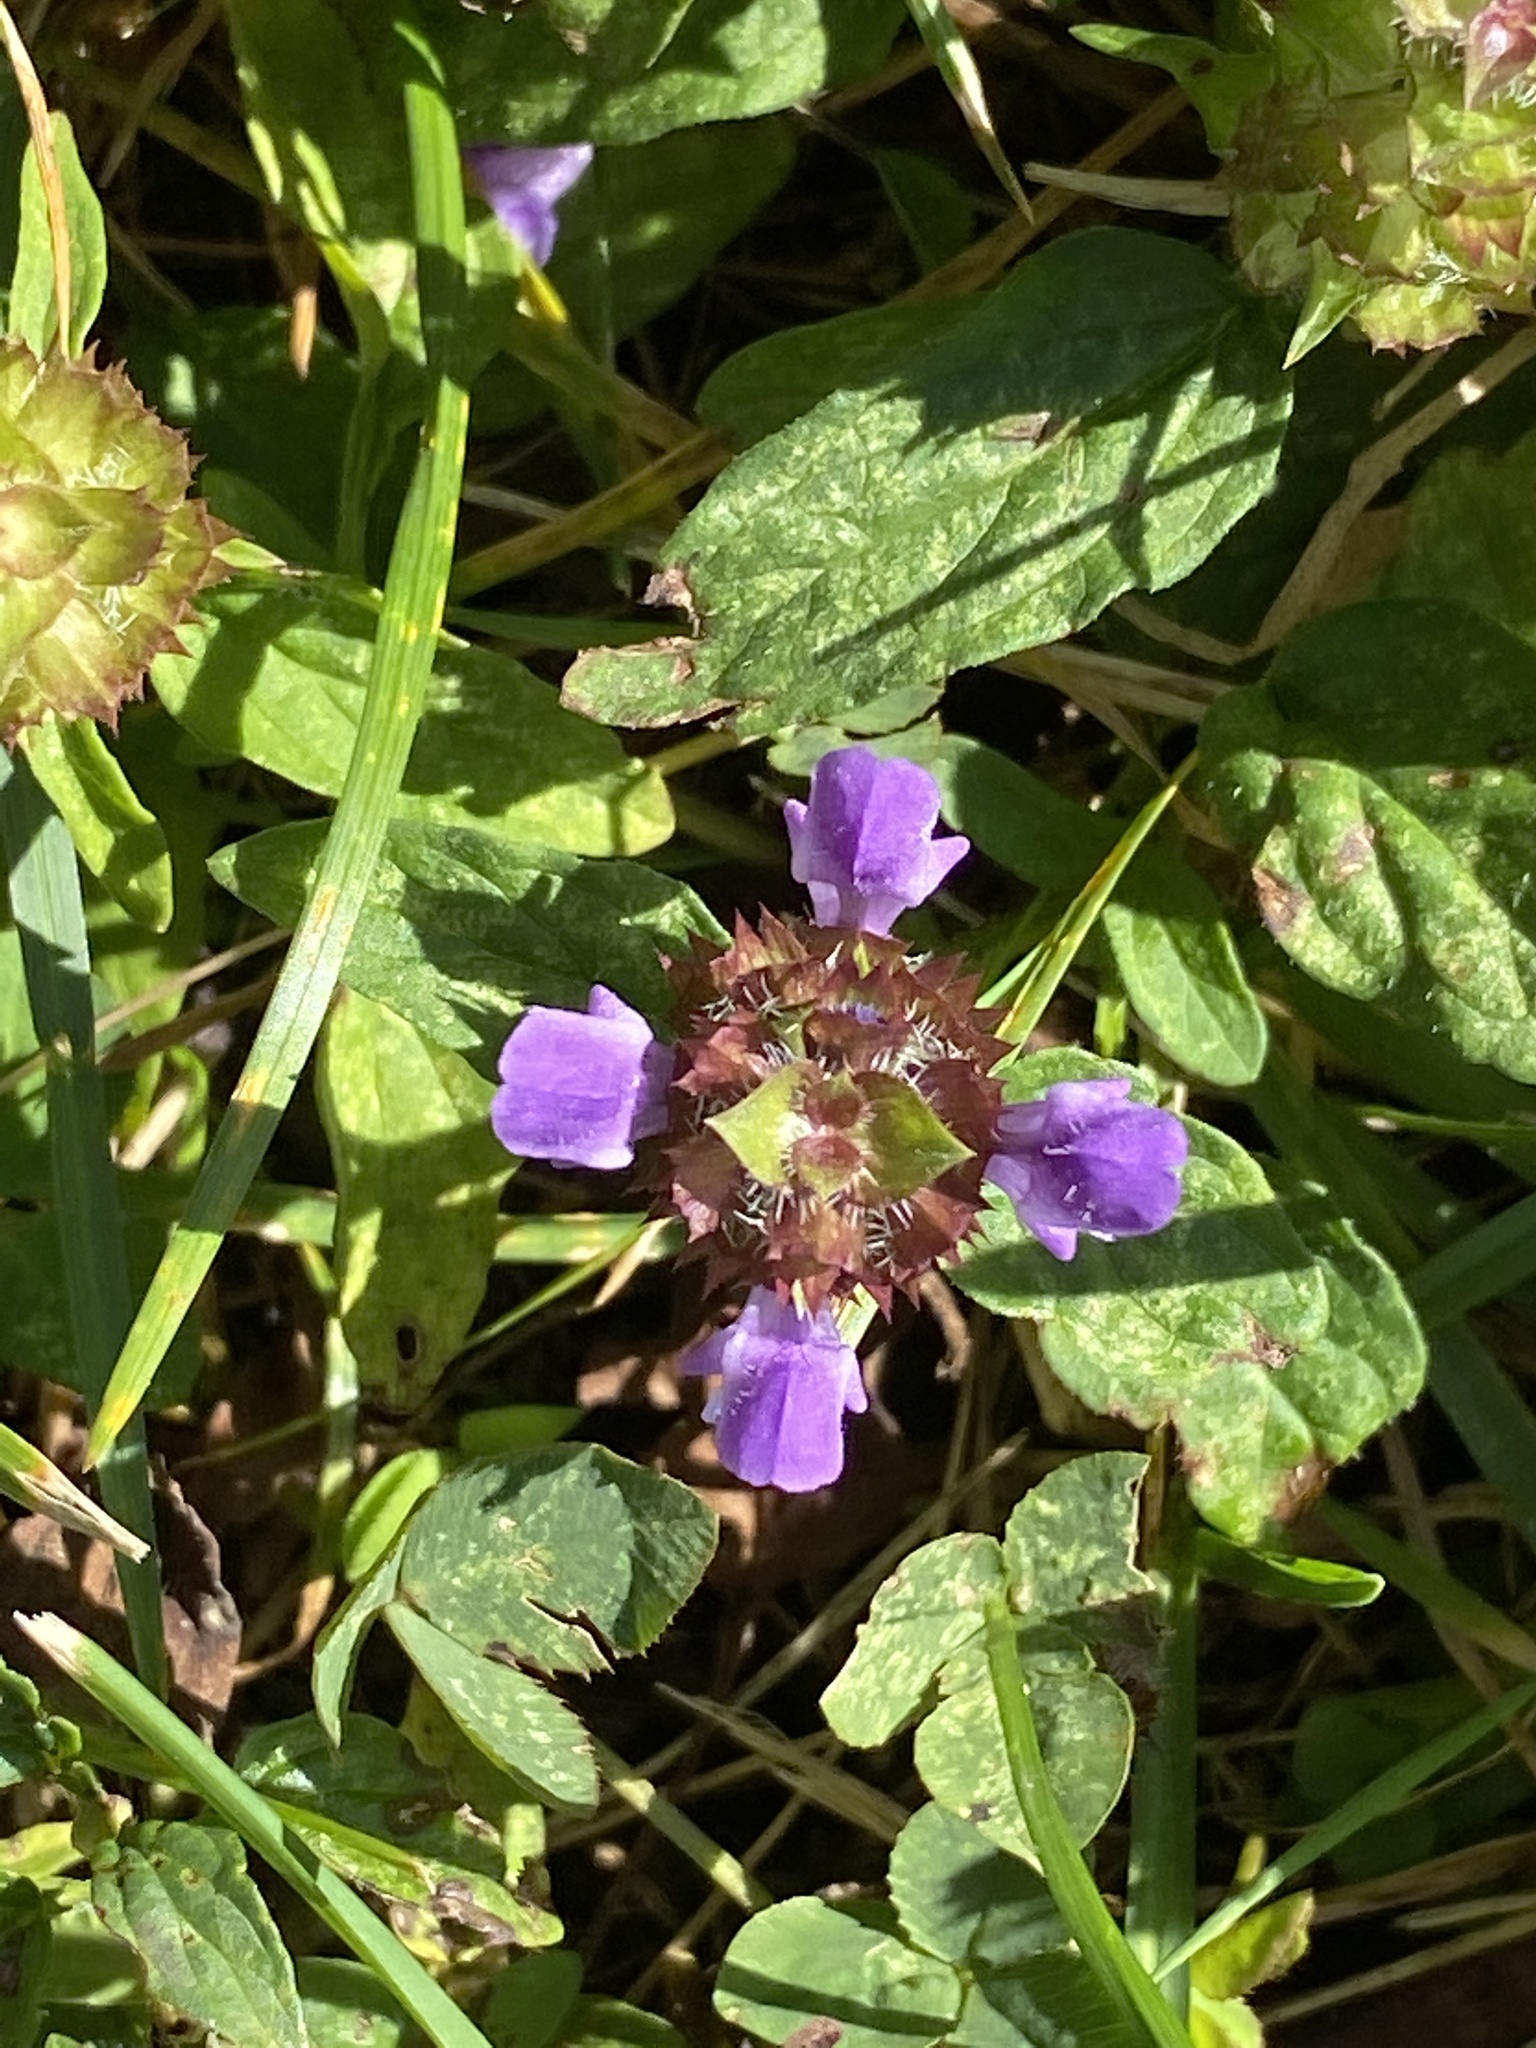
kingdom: Plantae
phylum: Tracheophyta
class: Magnoliopsida
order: Lamiales
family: Lamiaceae
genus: Prunella
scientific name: Prunella vulgaris
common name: Heal-all
